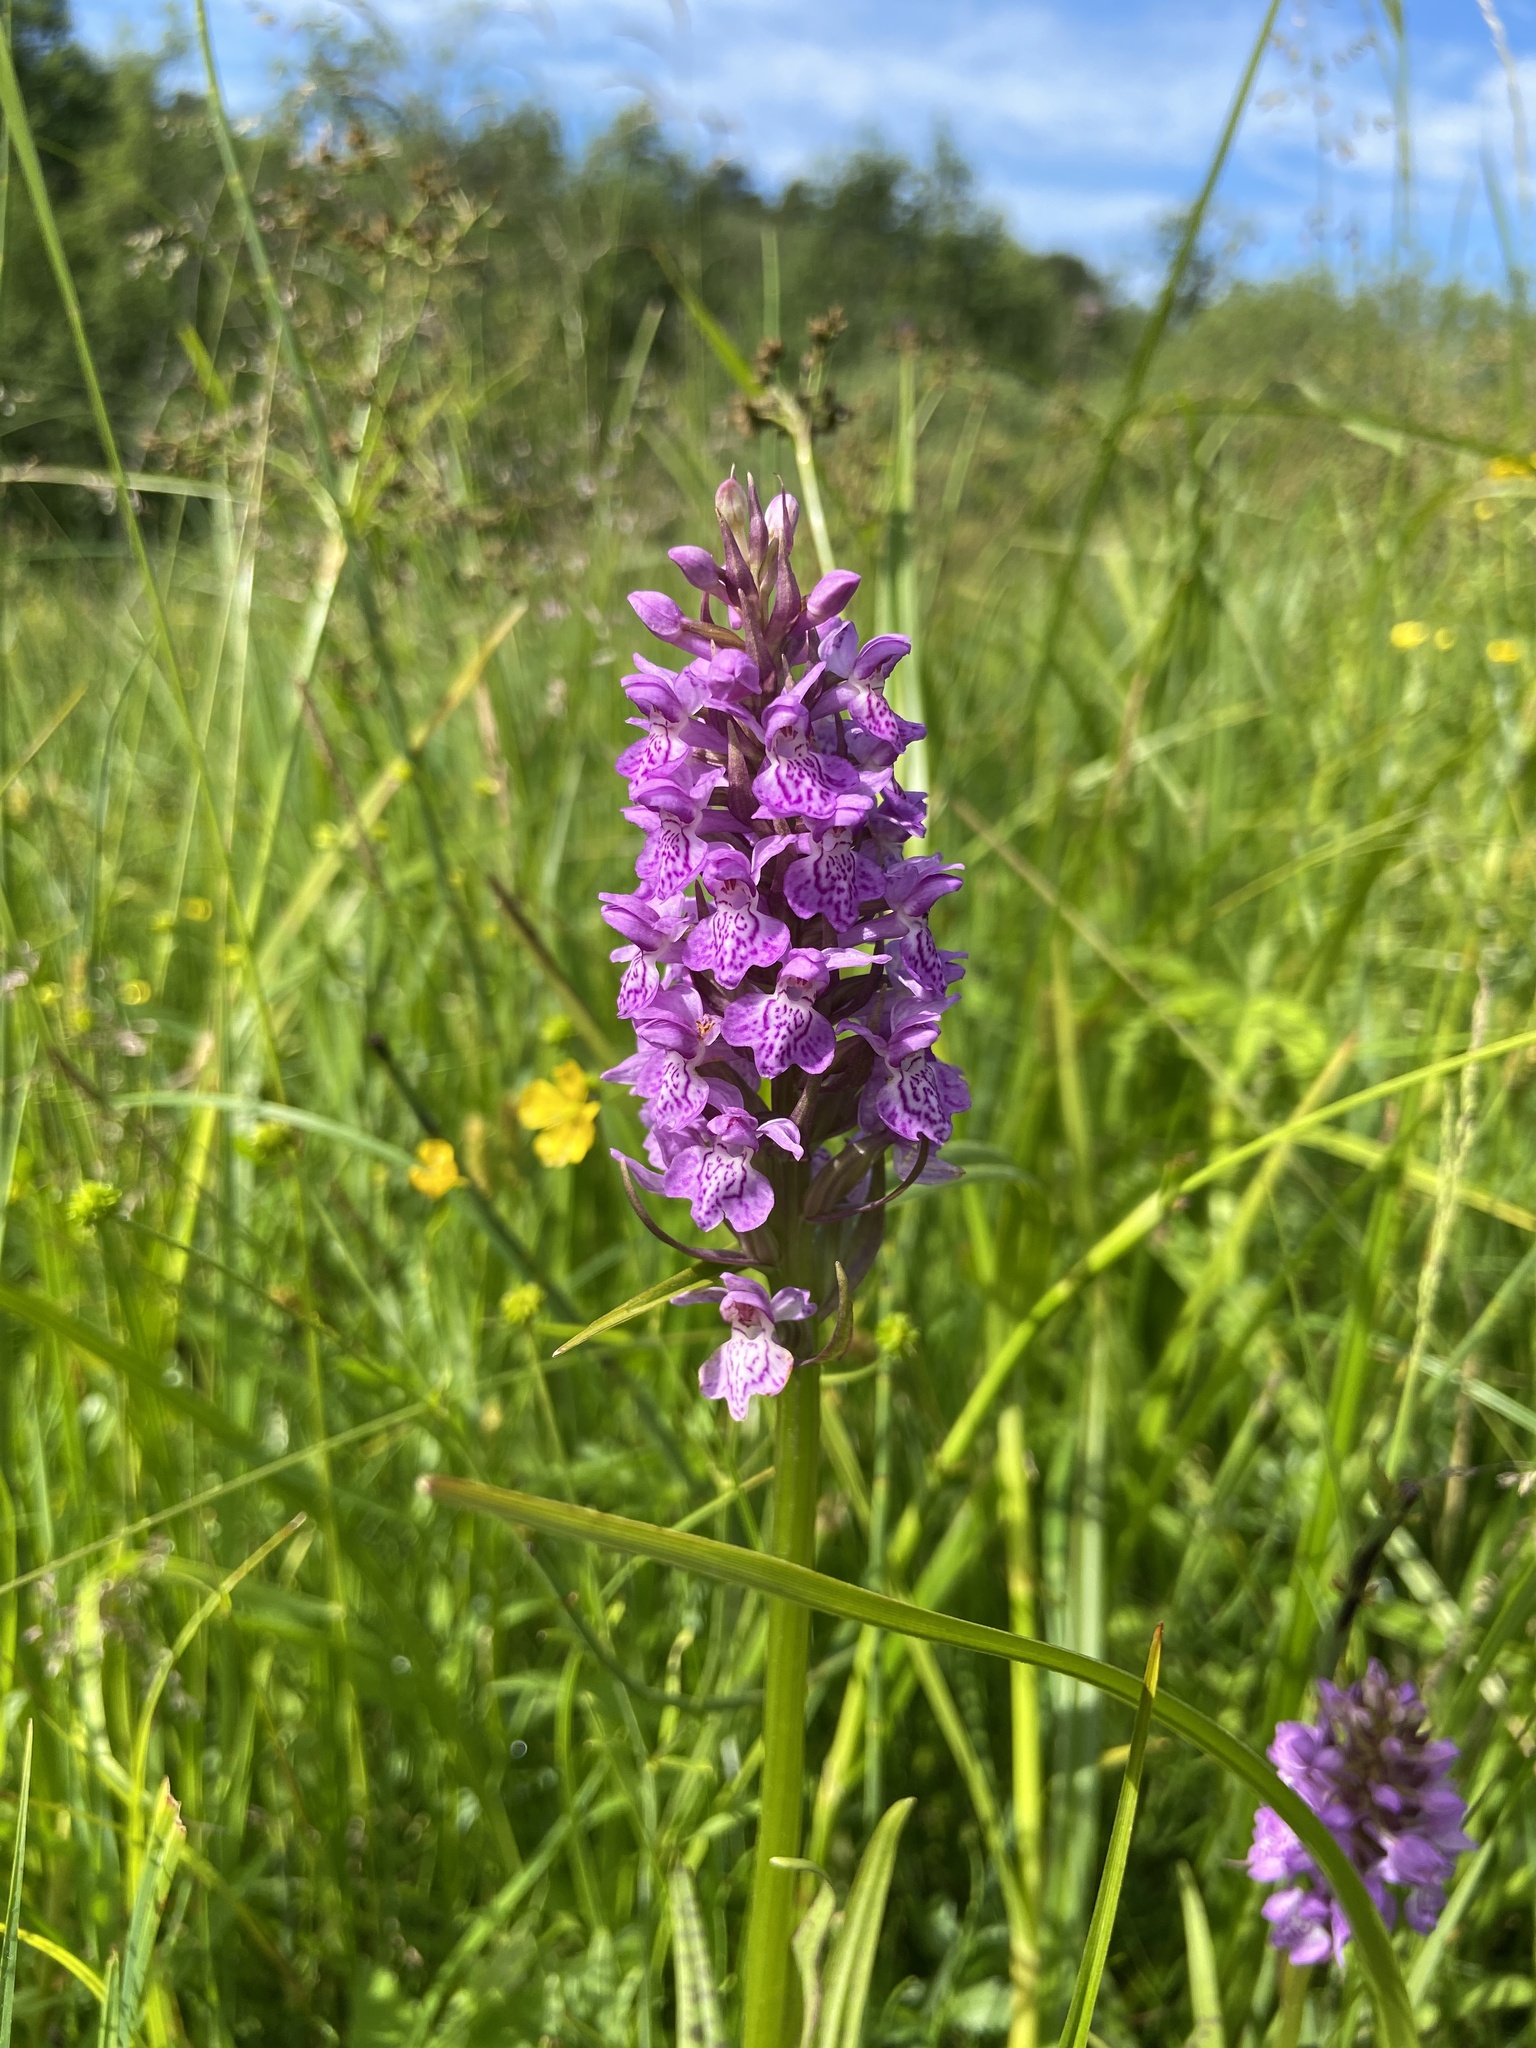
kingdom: Plantae
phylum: Tracheophyta
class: Liliopsida
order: Asparagales
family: Orchidaceae
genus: Dactylorhiza
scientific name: Dactylorhiza majalis
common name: Marsh orchid
